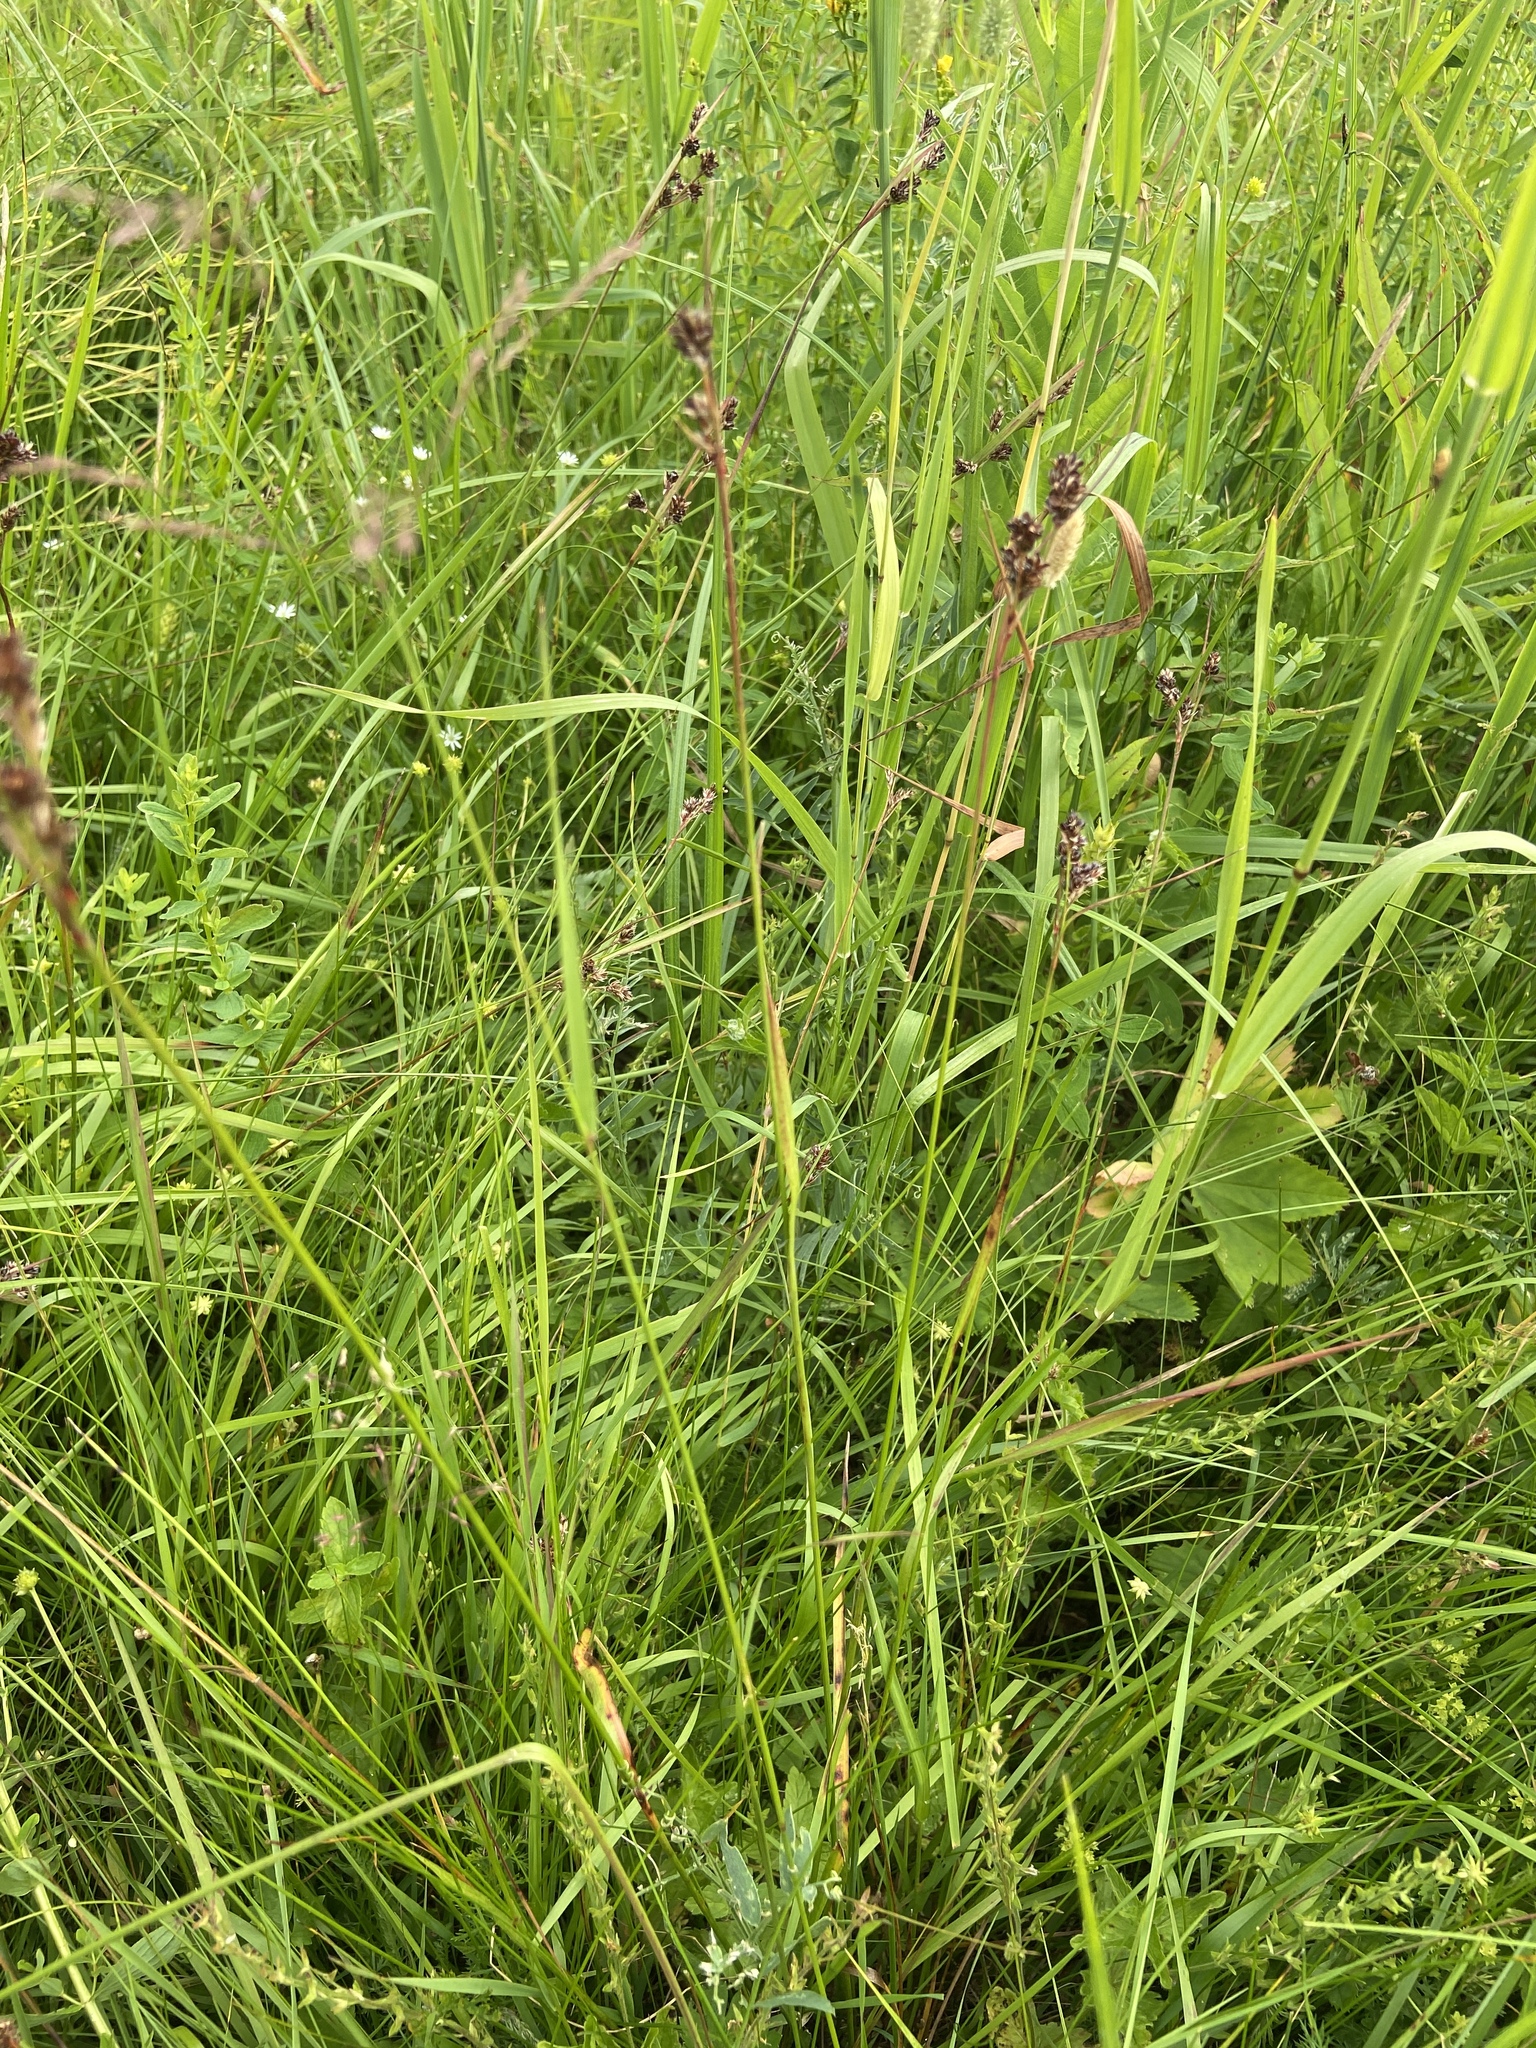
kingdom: Plantae
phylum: Tracheophyta
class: Liliopsida
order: Poales
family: Juncaceae
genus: Luzula
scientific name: Luzula multiflora
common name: Heath wood-rush
